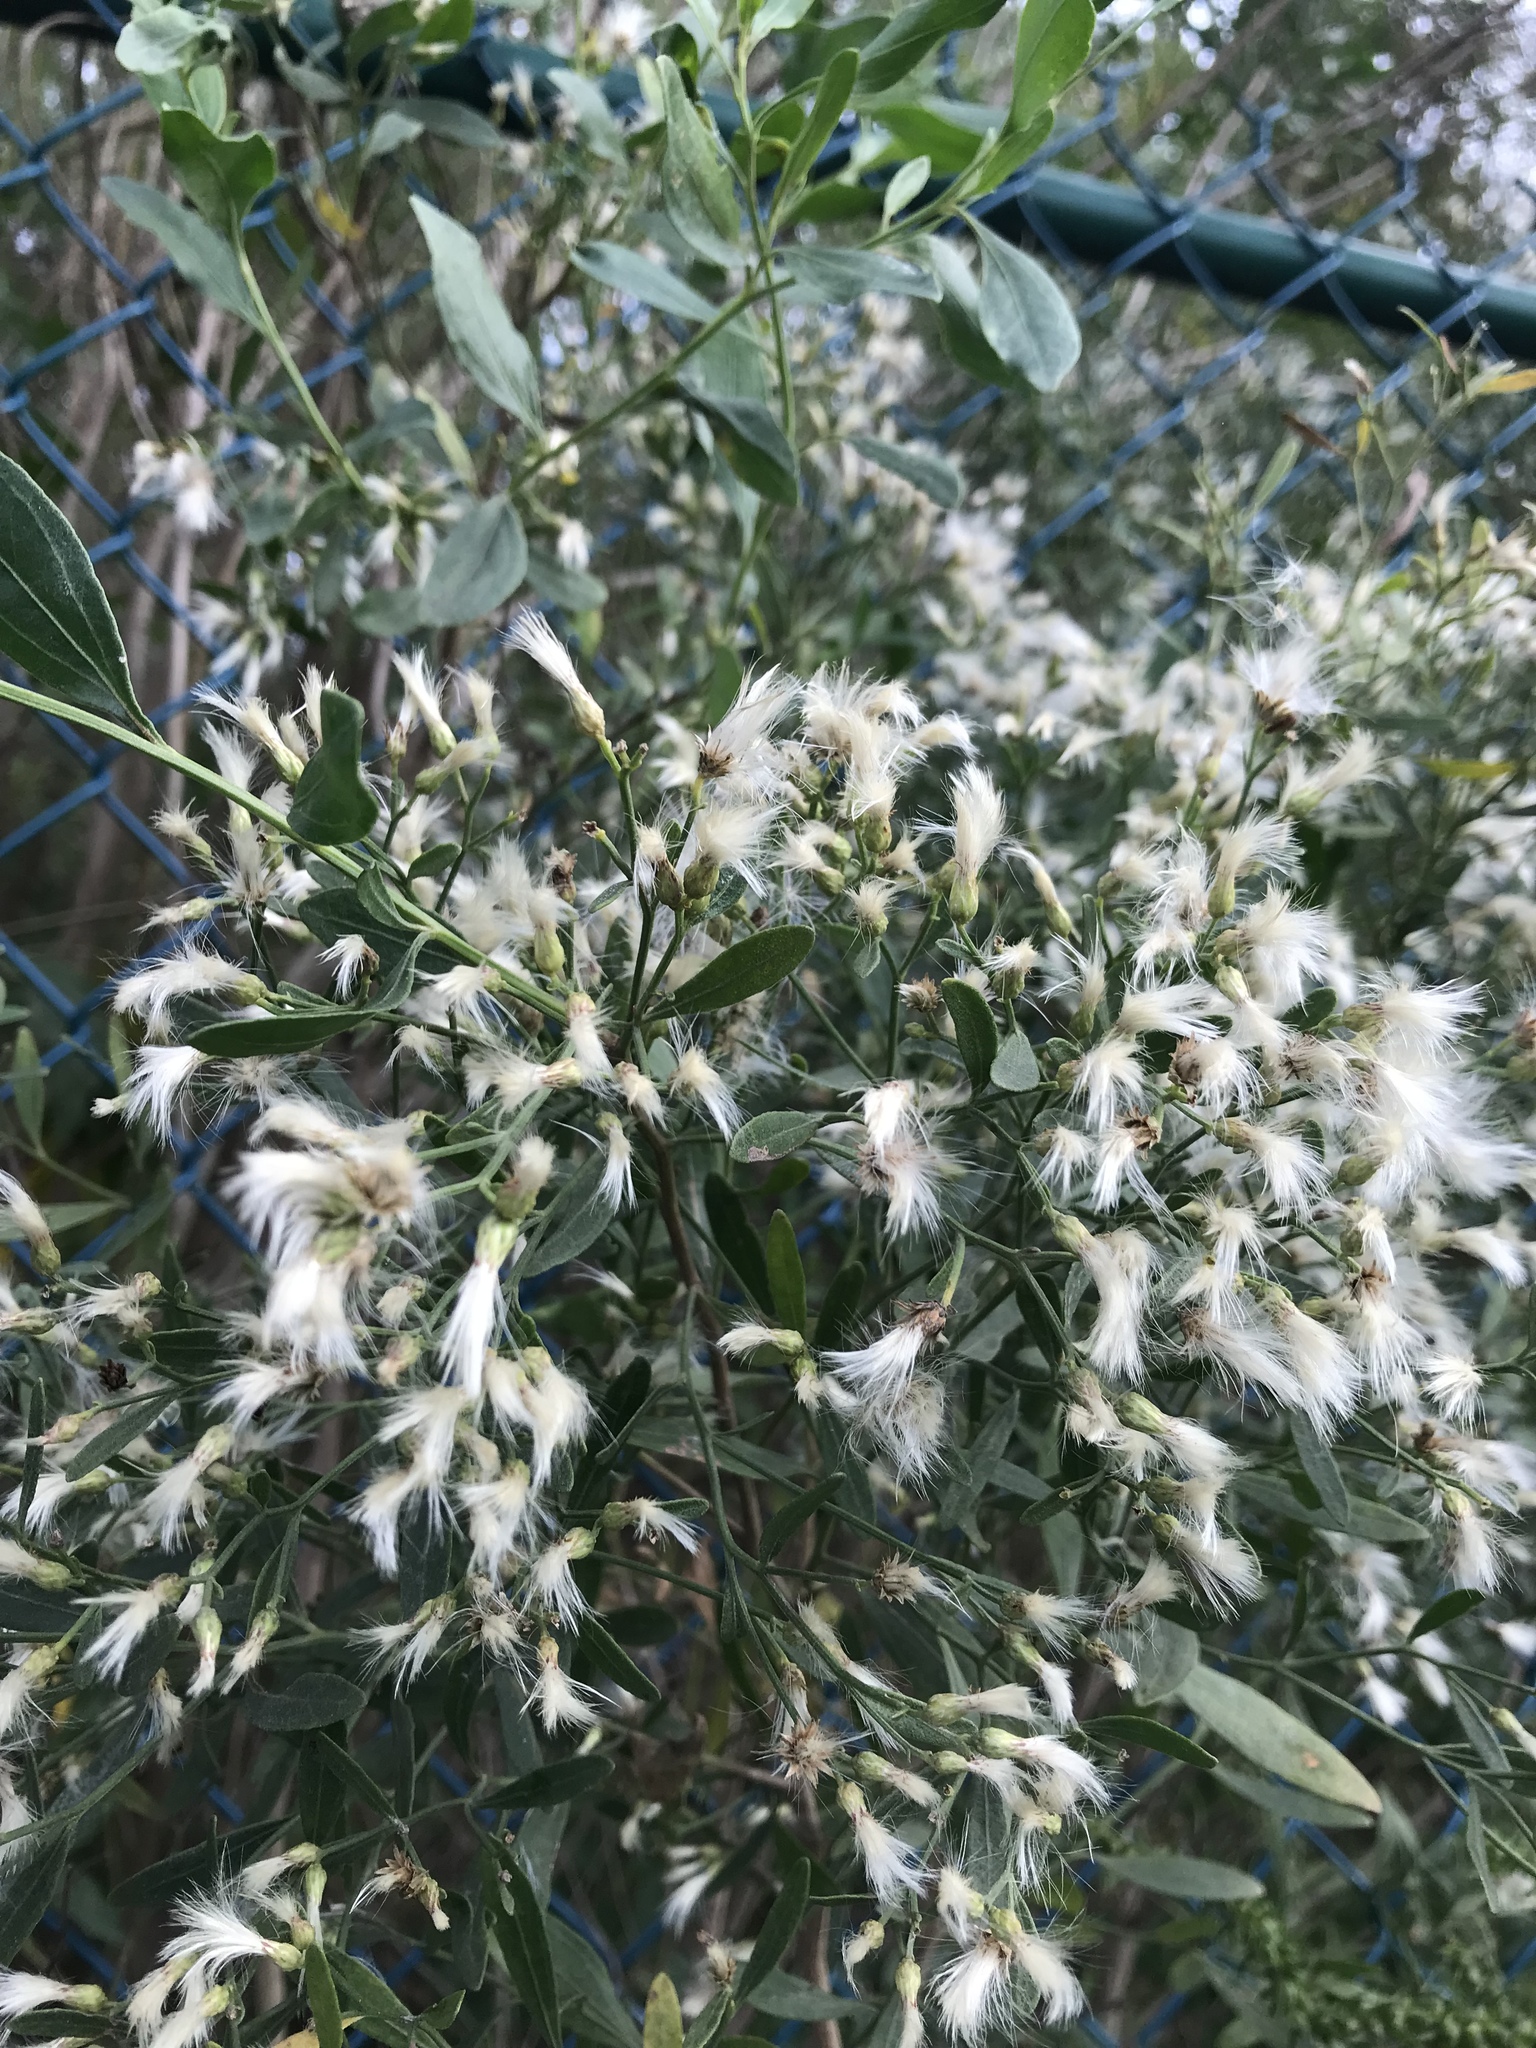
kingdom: Plantae
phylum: Tracheophyta
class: Magnoliopsida
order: Asterales
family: Asteraceae
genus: Baccharis
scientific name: Baccharis halimifolia
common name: Eastern baccharis
